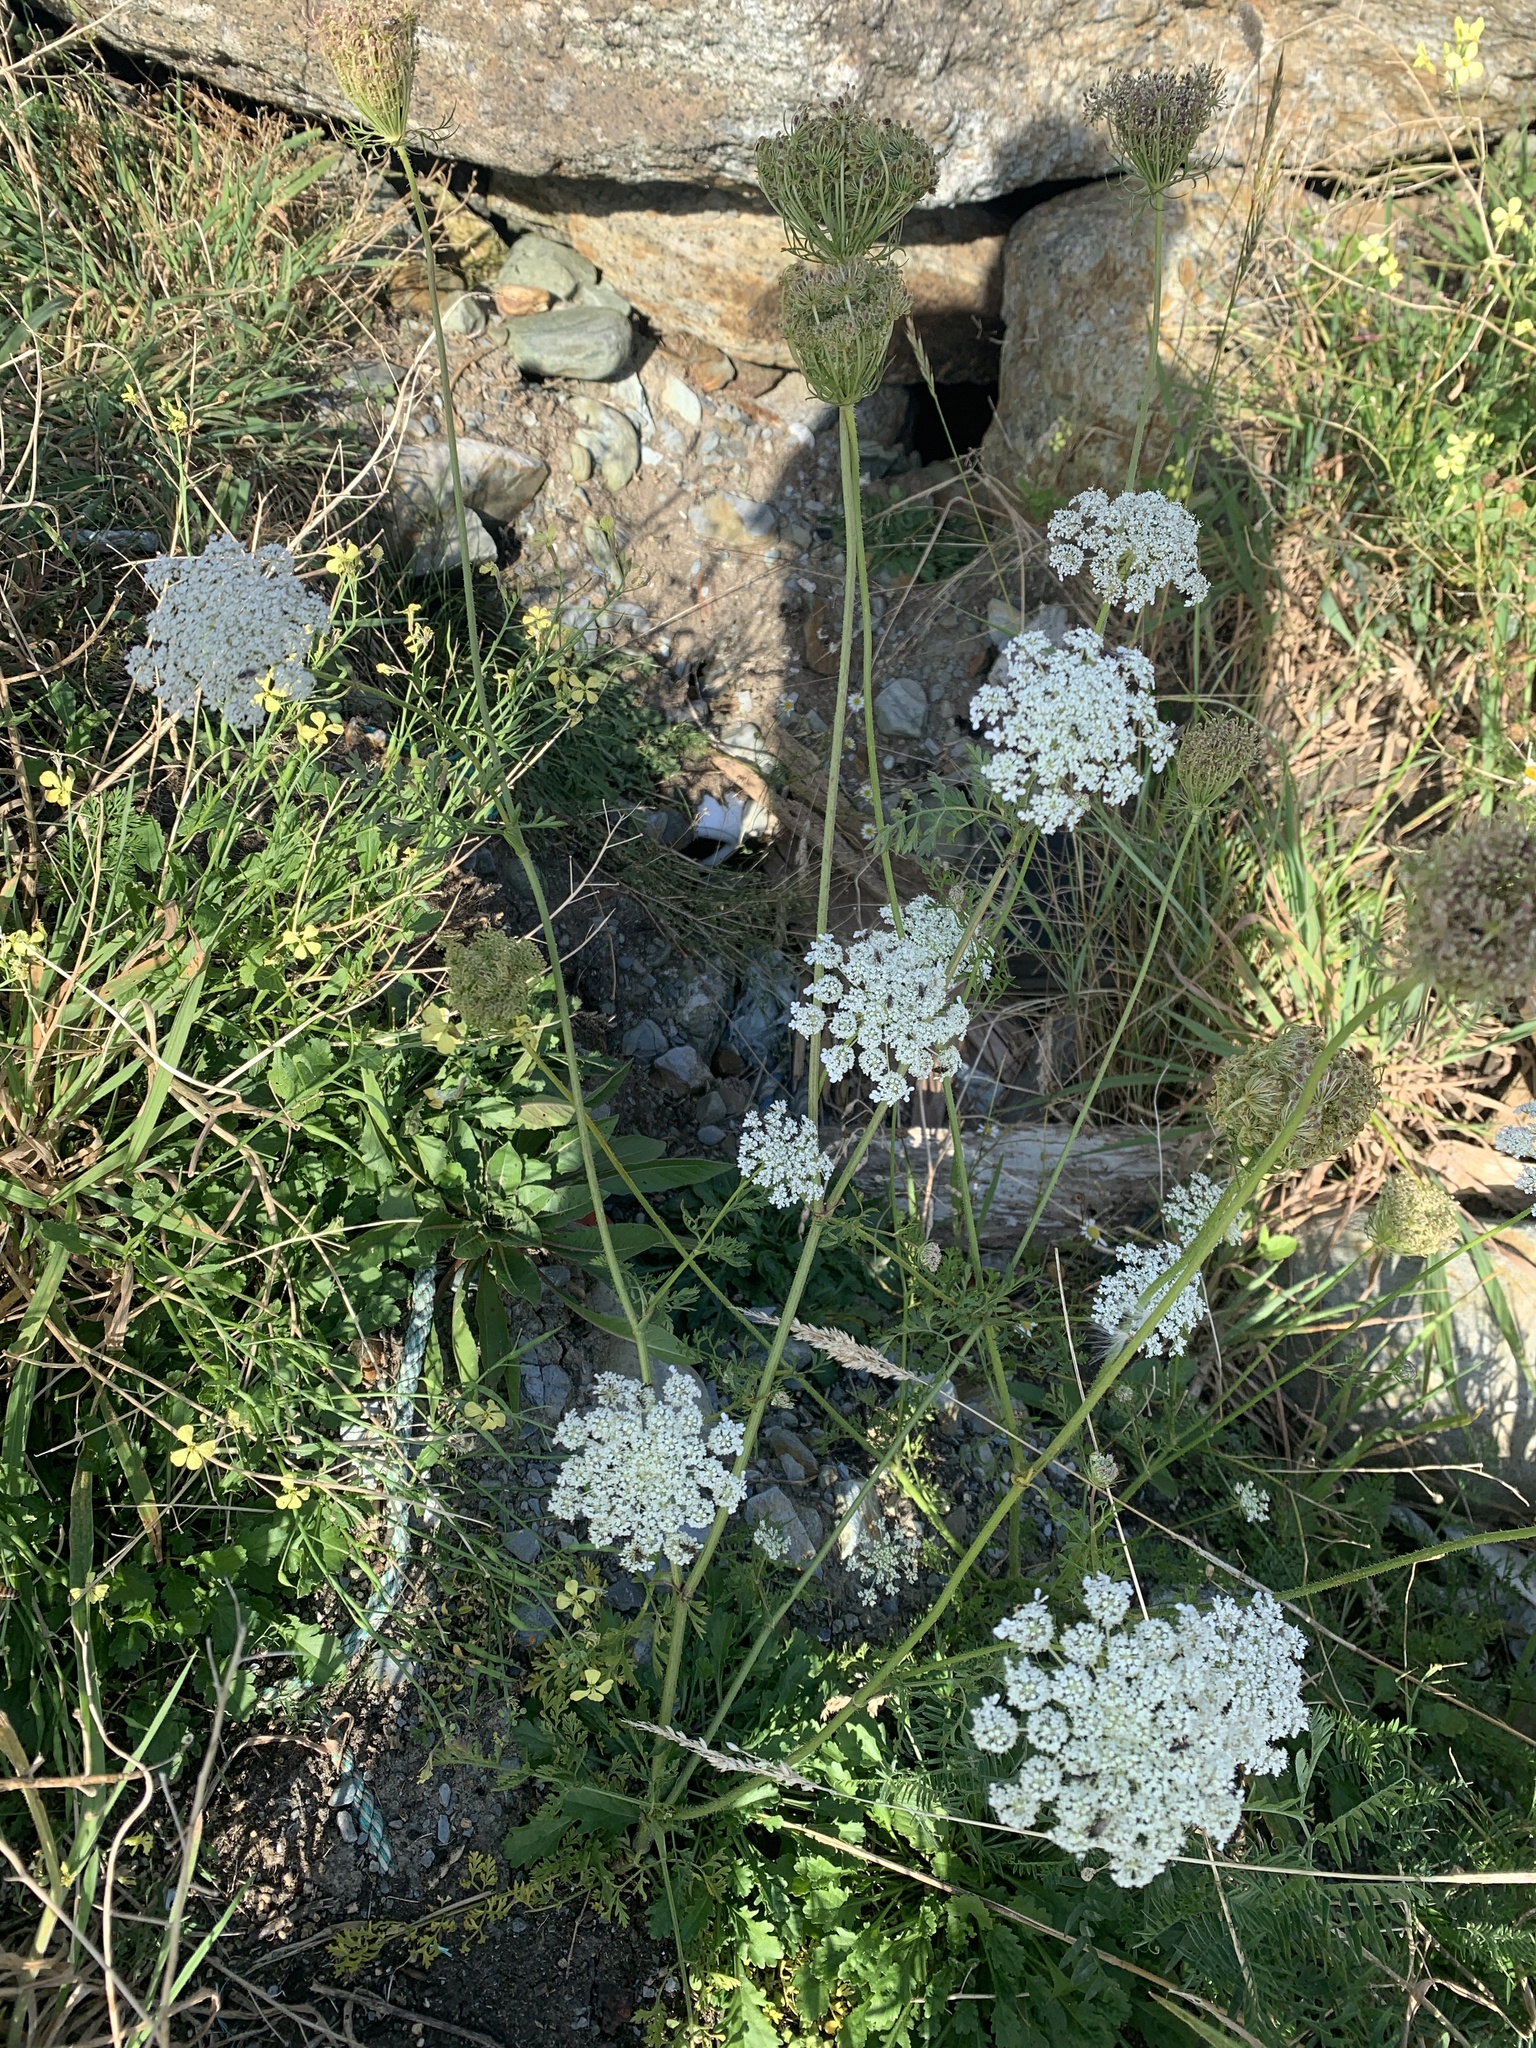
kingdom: Plantae
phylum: Tracheophyta
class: Magnoliopsida
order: Apiales
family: Apiaceae
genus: Daucus
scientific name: Daucus carota
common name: Wild carrot
